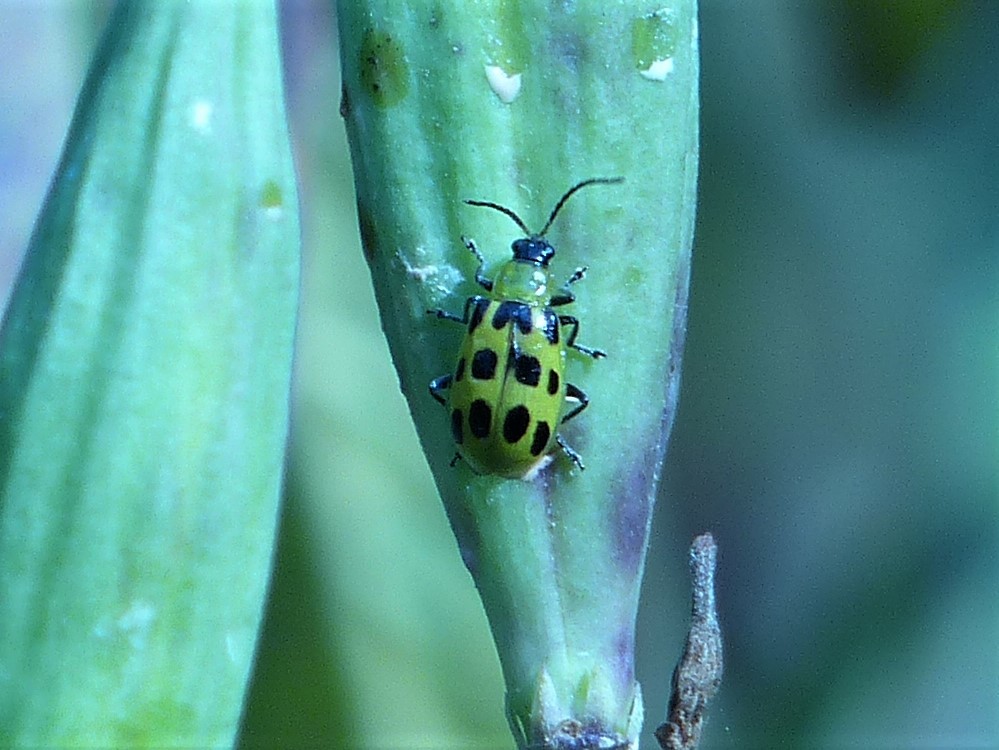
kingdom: Animalia
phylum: Arthropoda
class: Insecta
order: Coleoptera
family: Chrysomelidae
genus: Diabrotica
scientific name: Diabrotica undecimpunctata
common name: Spotted cucumber beetle
